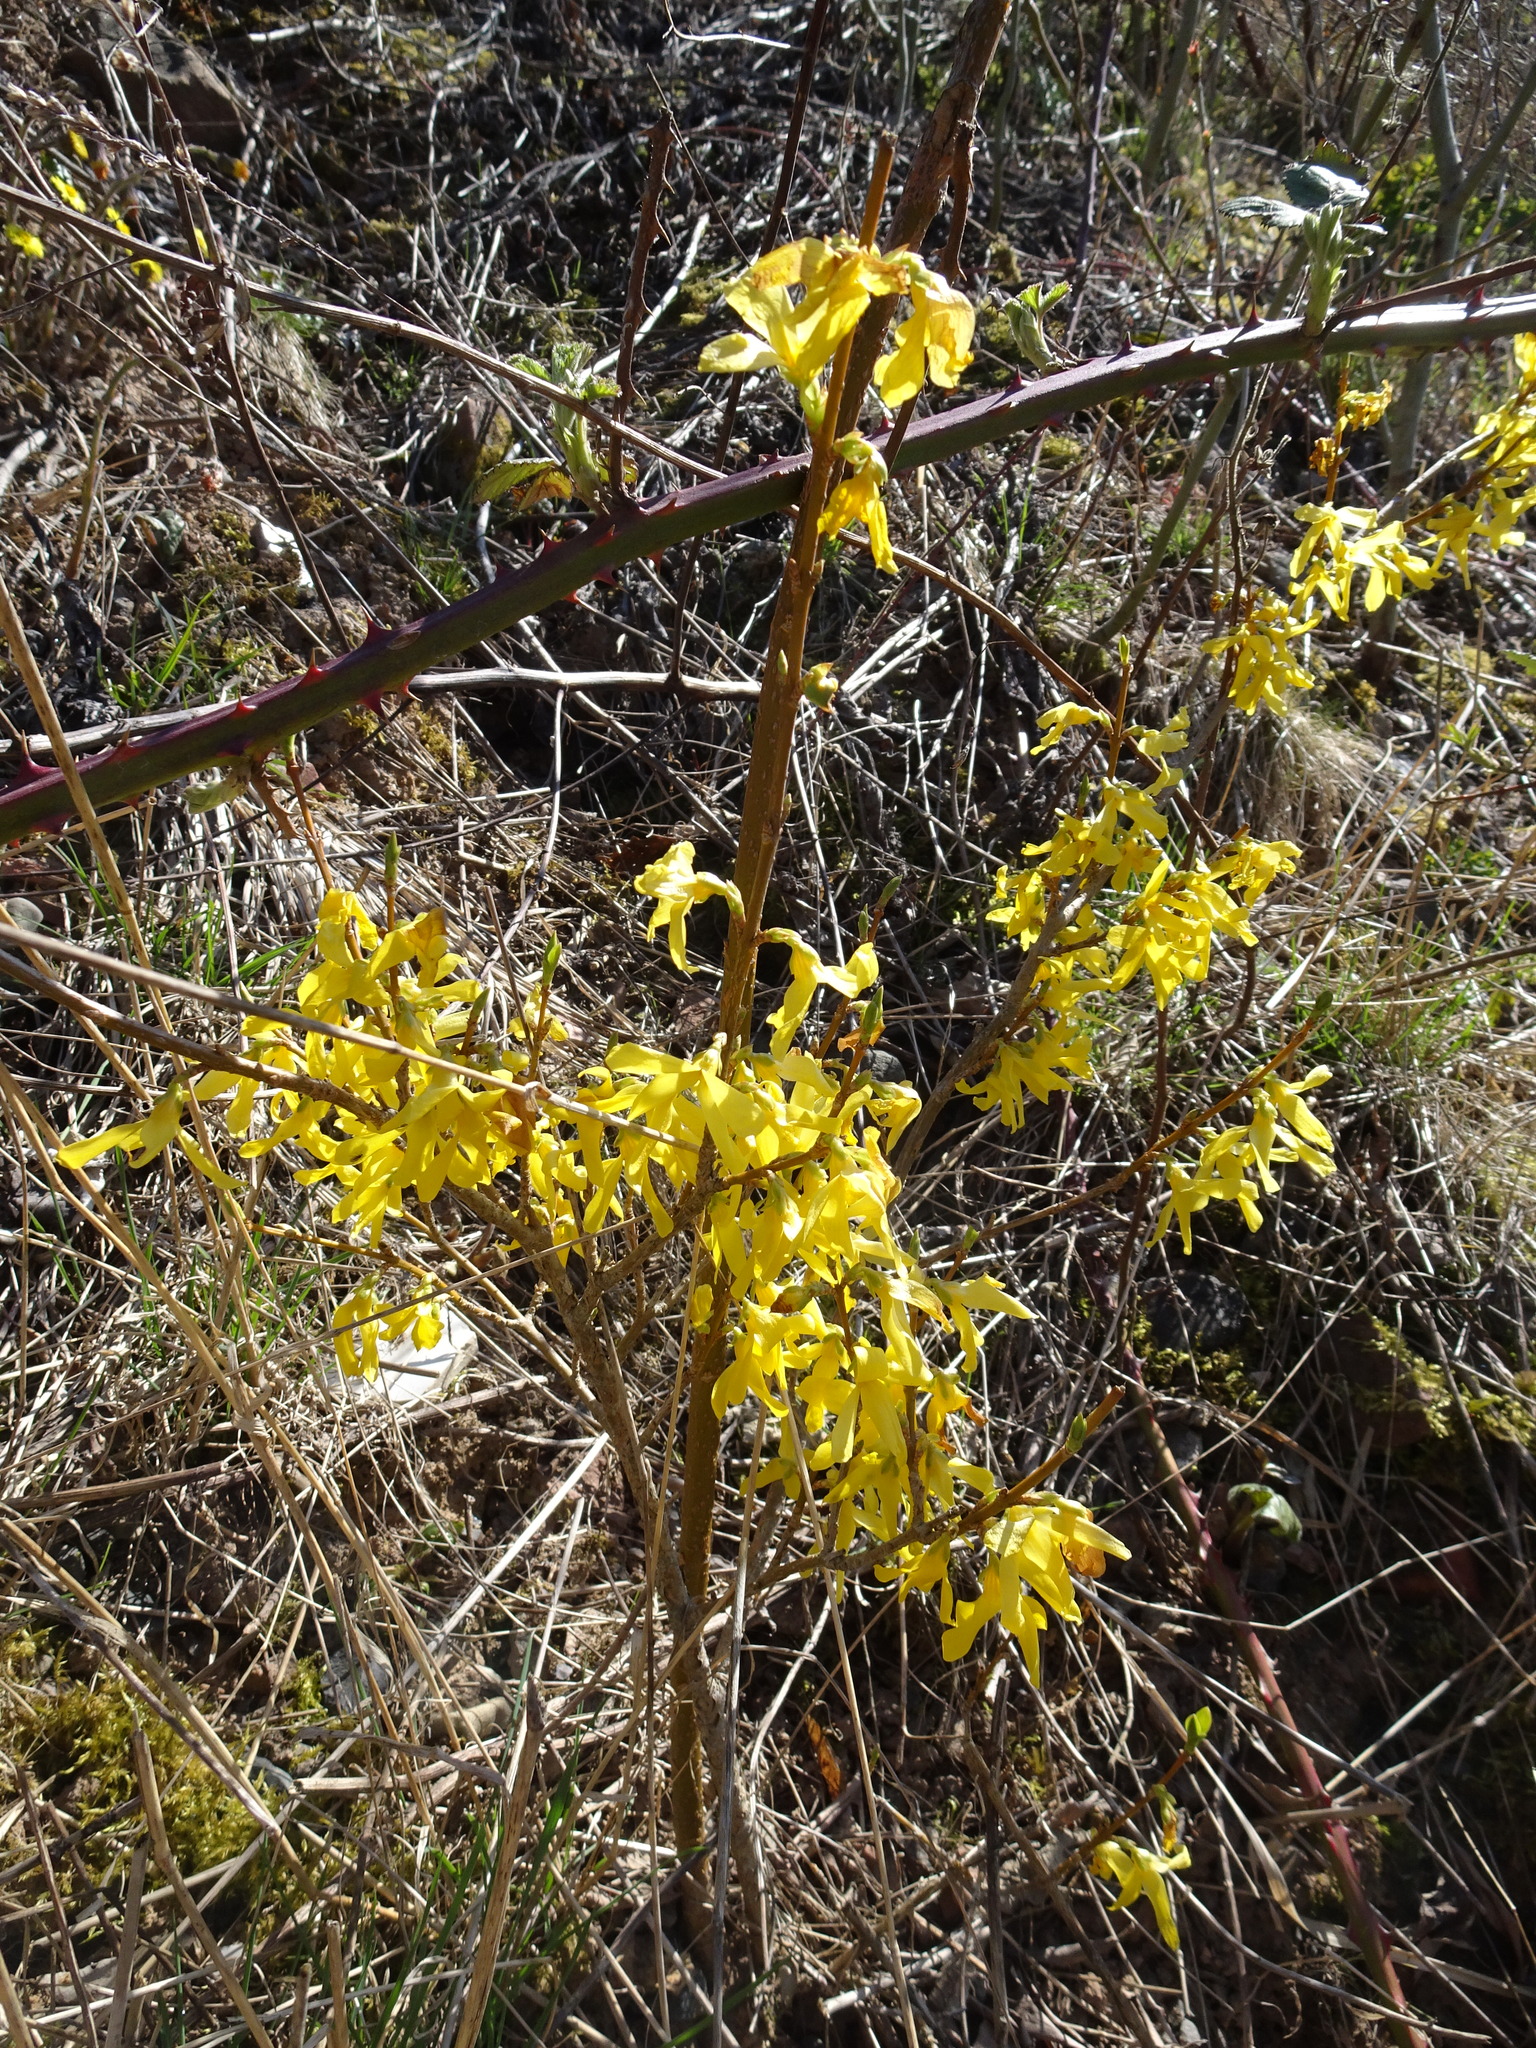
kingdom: Plantae
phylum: Tracheophyta
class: Magnoliopsida
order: Lamiales
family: Oleaceae
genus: Forsythia
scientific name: Forsythia intermedia
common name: Forsythia
